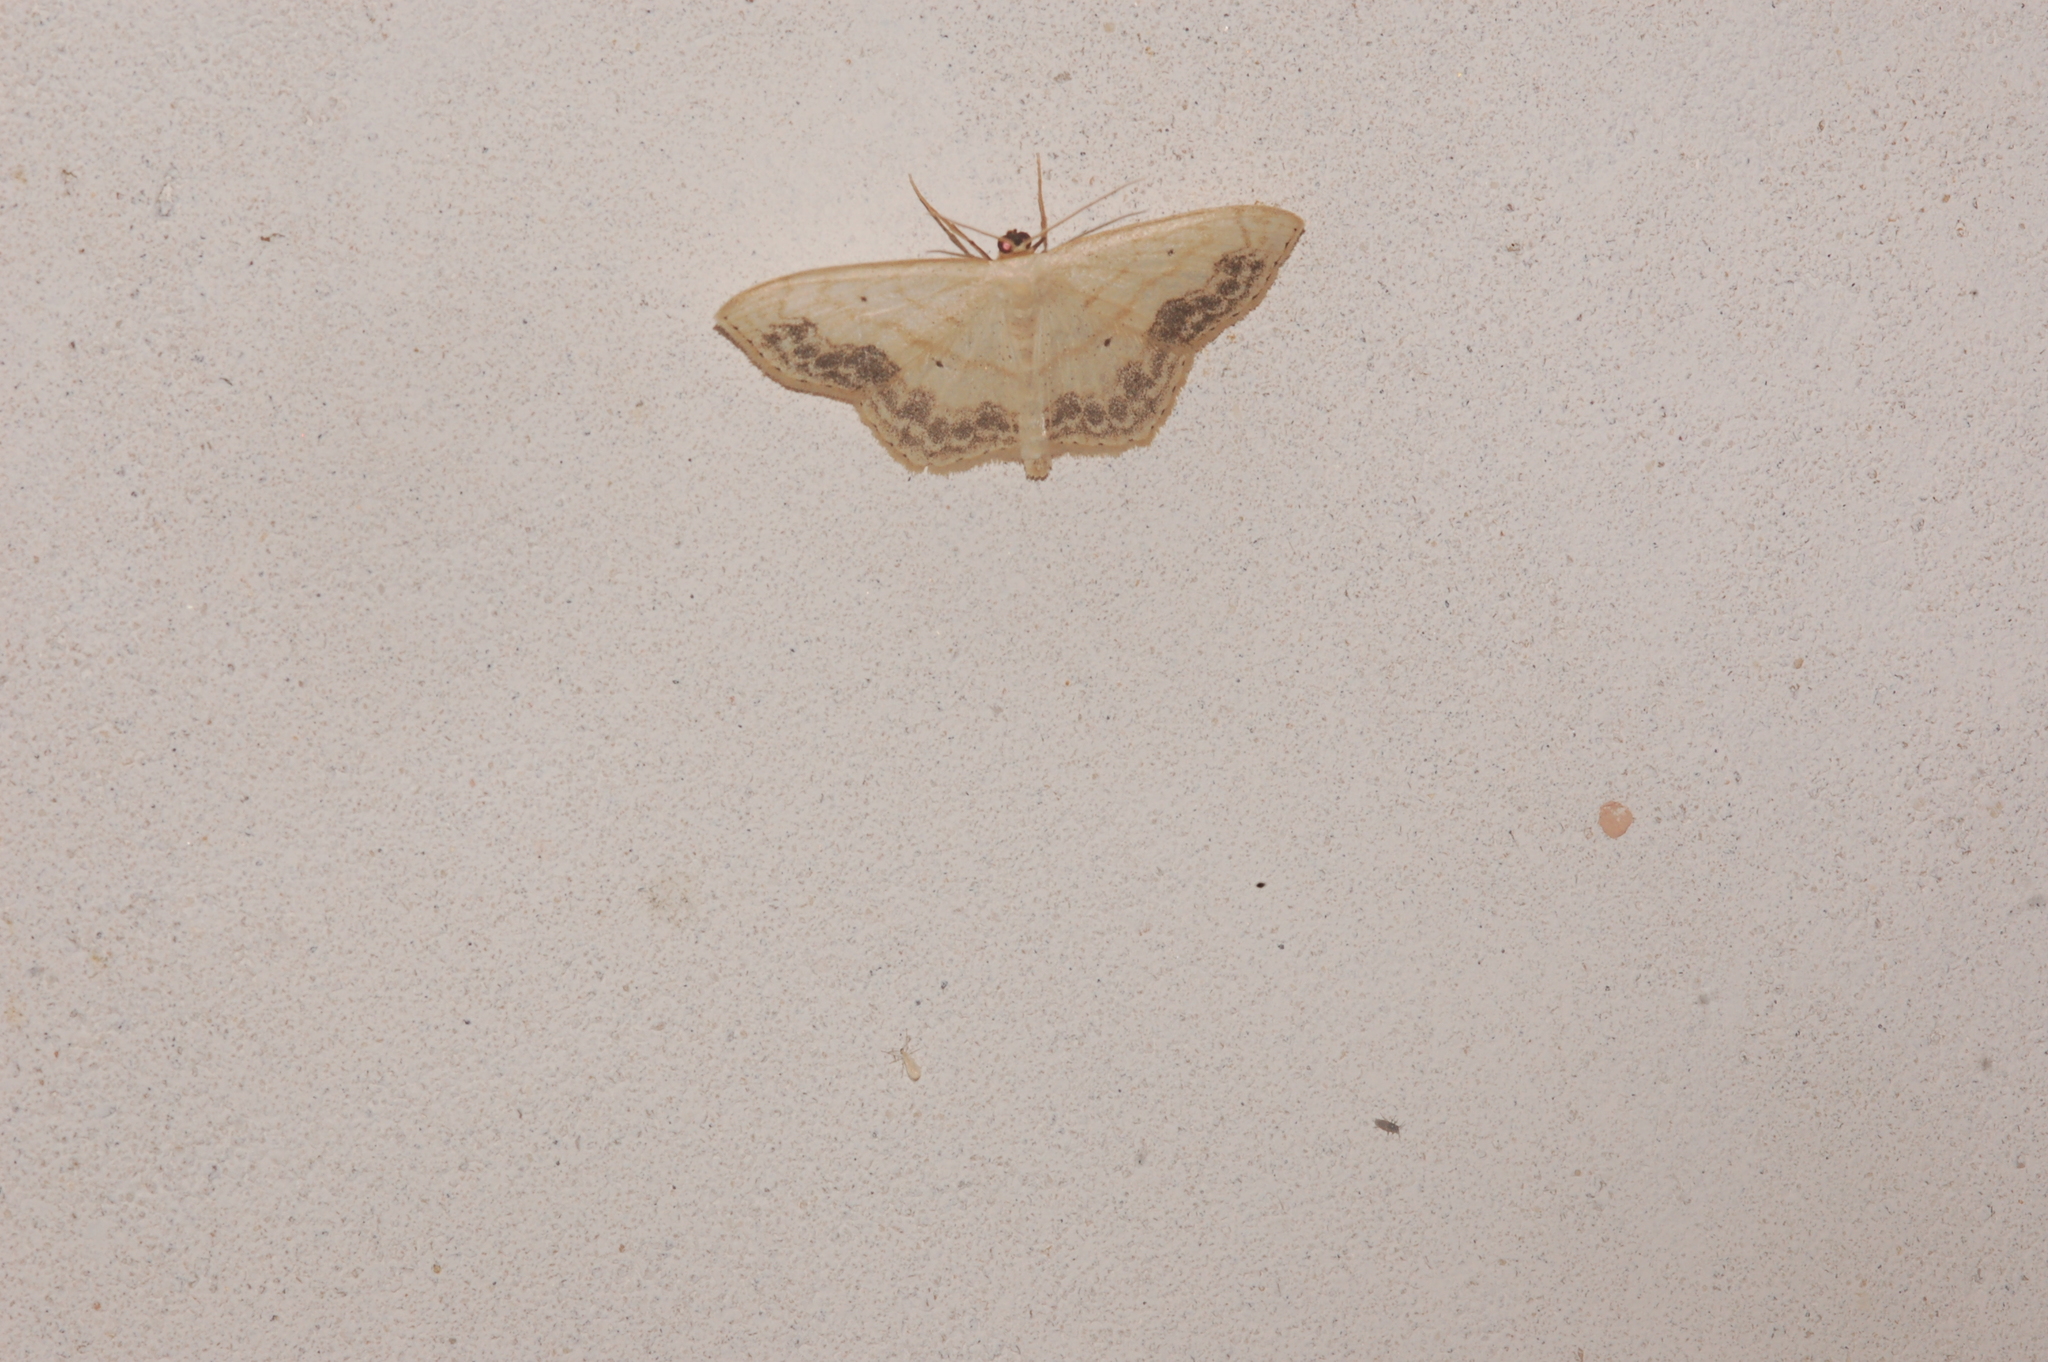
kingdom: Animalia
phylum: Arthropoda
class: Insecta
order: Lepidoptera
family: Geometridae
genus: Scopula
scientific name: Scopula limboundata
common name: Large lace border
